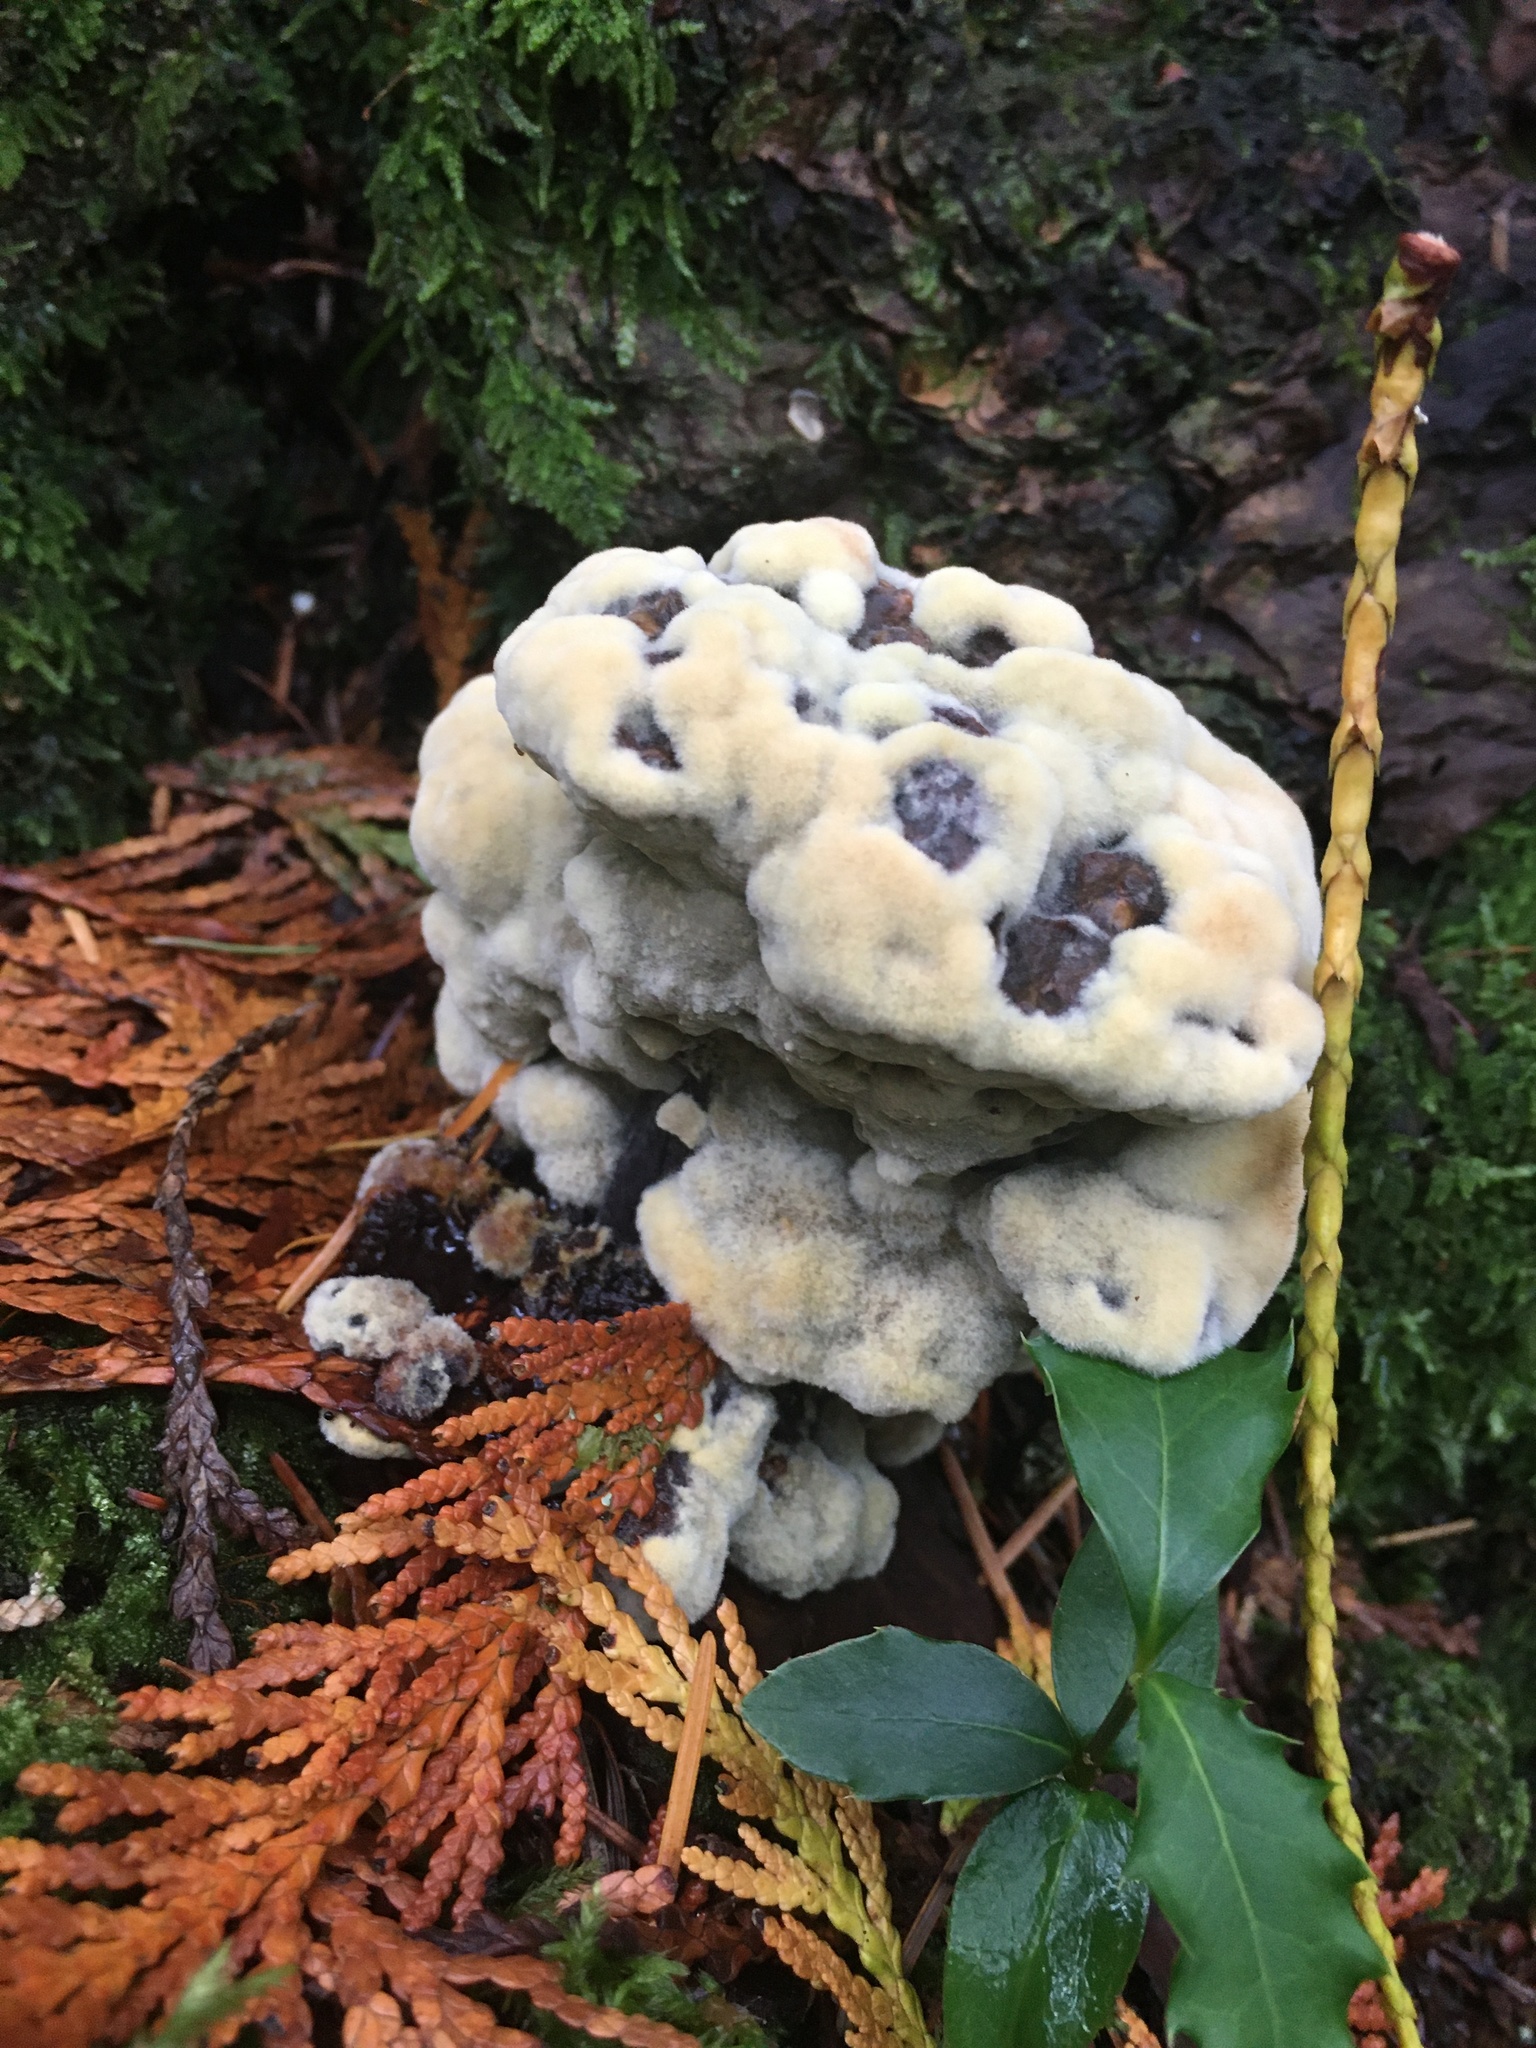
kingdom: Fungi
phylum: Basidiomycota
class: Agaricomycetes
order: Polyporales
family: Laetiporaceae
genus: Phaeolus
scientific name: Phaeolus schweinitzii
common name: Dyer's mazegill
